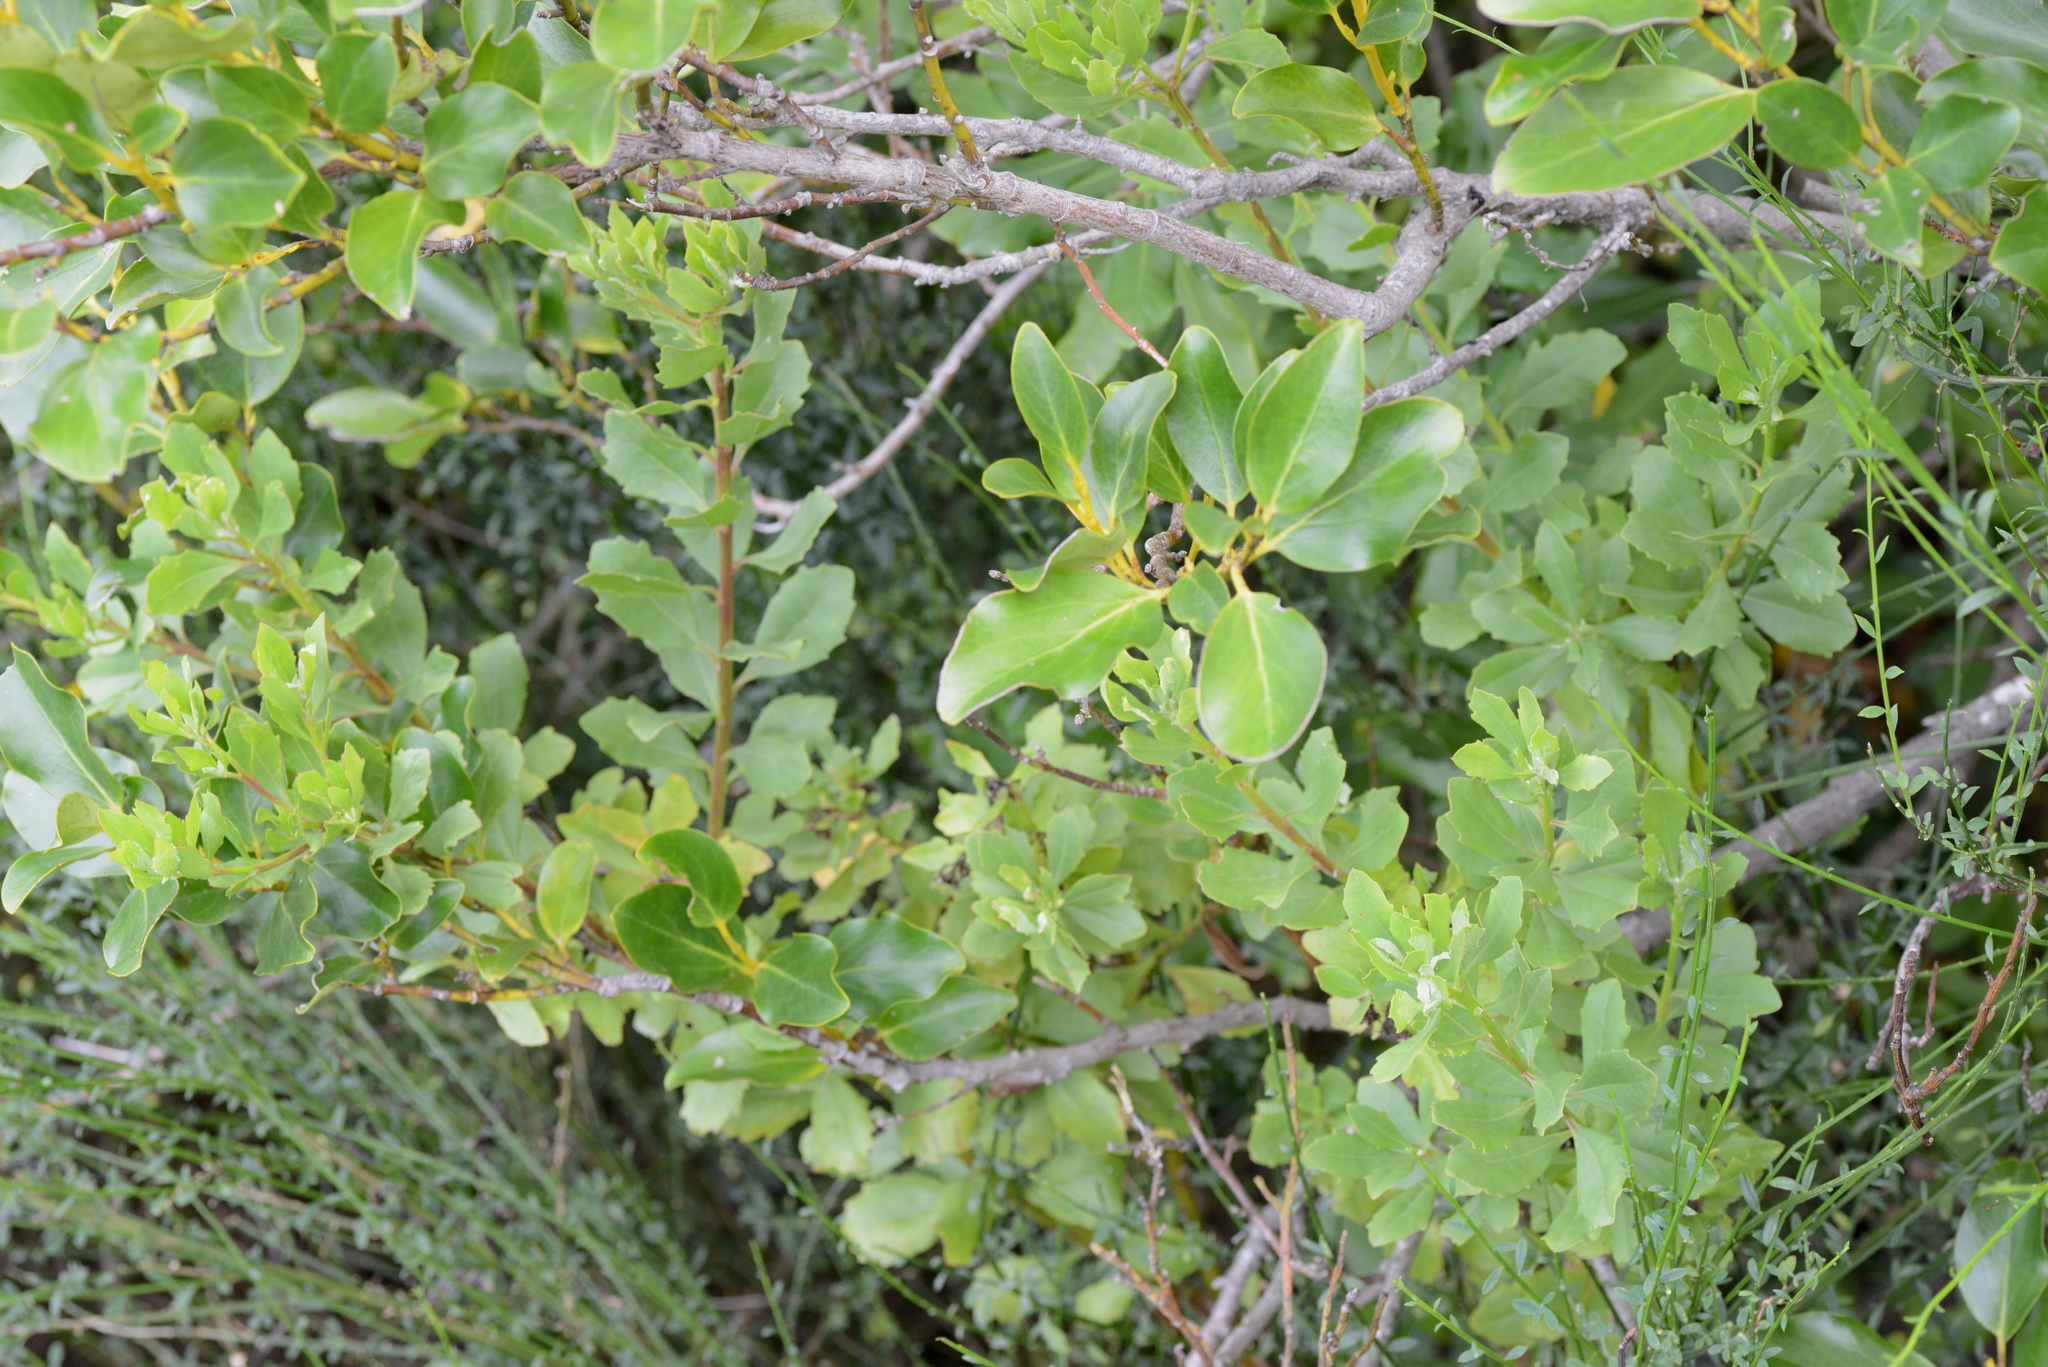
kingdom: Plantae
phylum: Tracheophyta
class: Magnoliopsida
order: Asterales
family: Asteraceae
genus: Osteospermum
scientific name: Osteospermum moniliferum
